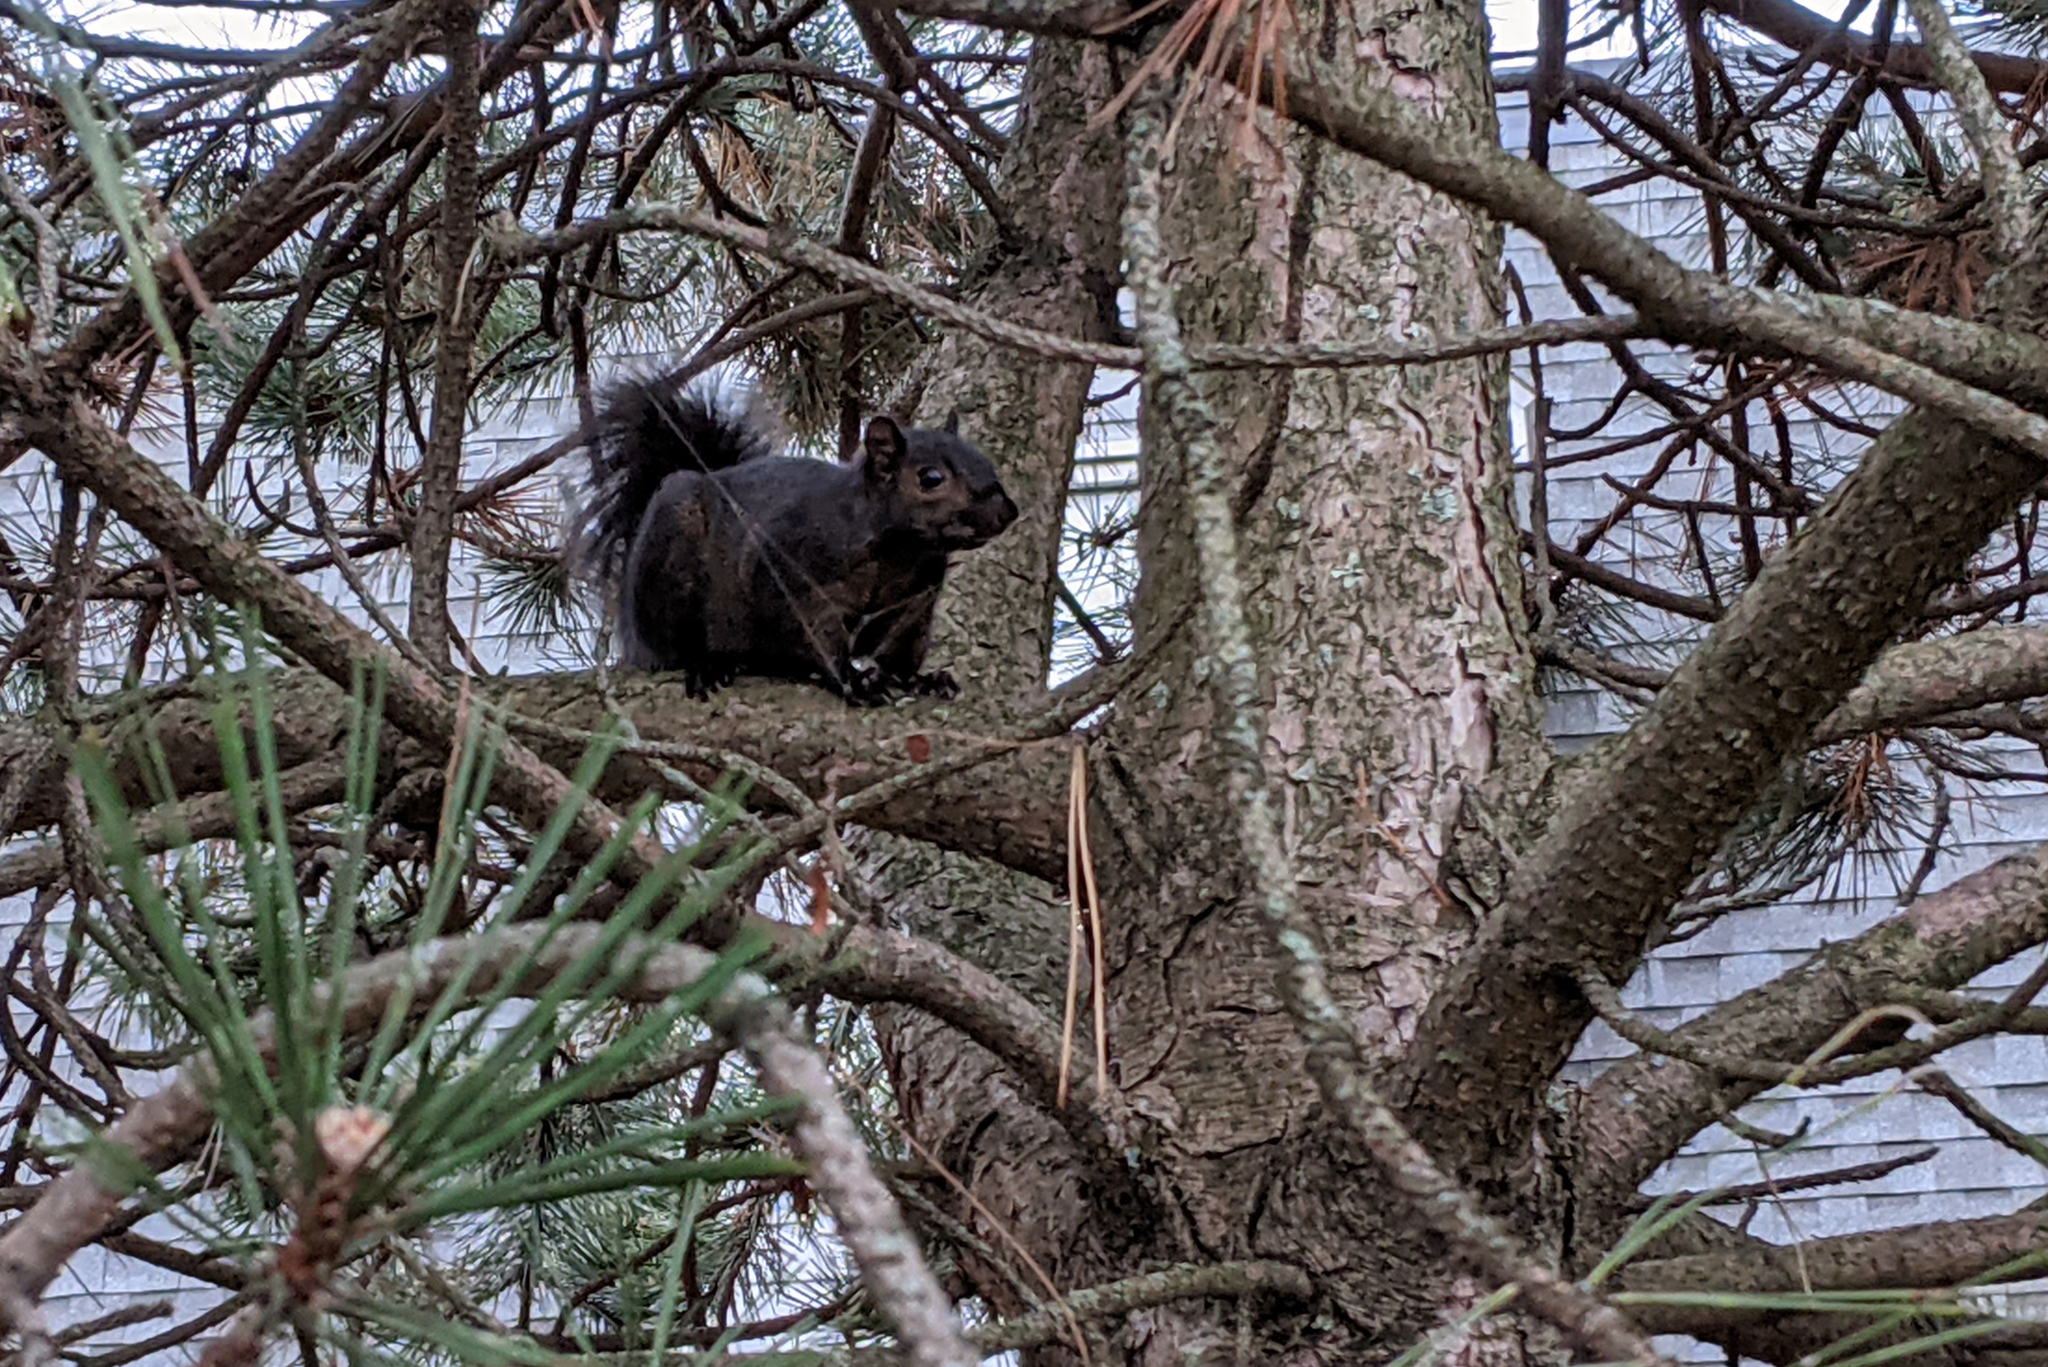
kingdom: Animalia
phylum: Chordata
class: Mammalia
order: Rodentia
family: Sciuridae
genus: Sciurus
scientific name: Sciurus carolinensis
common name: Eastern gray squirrel
